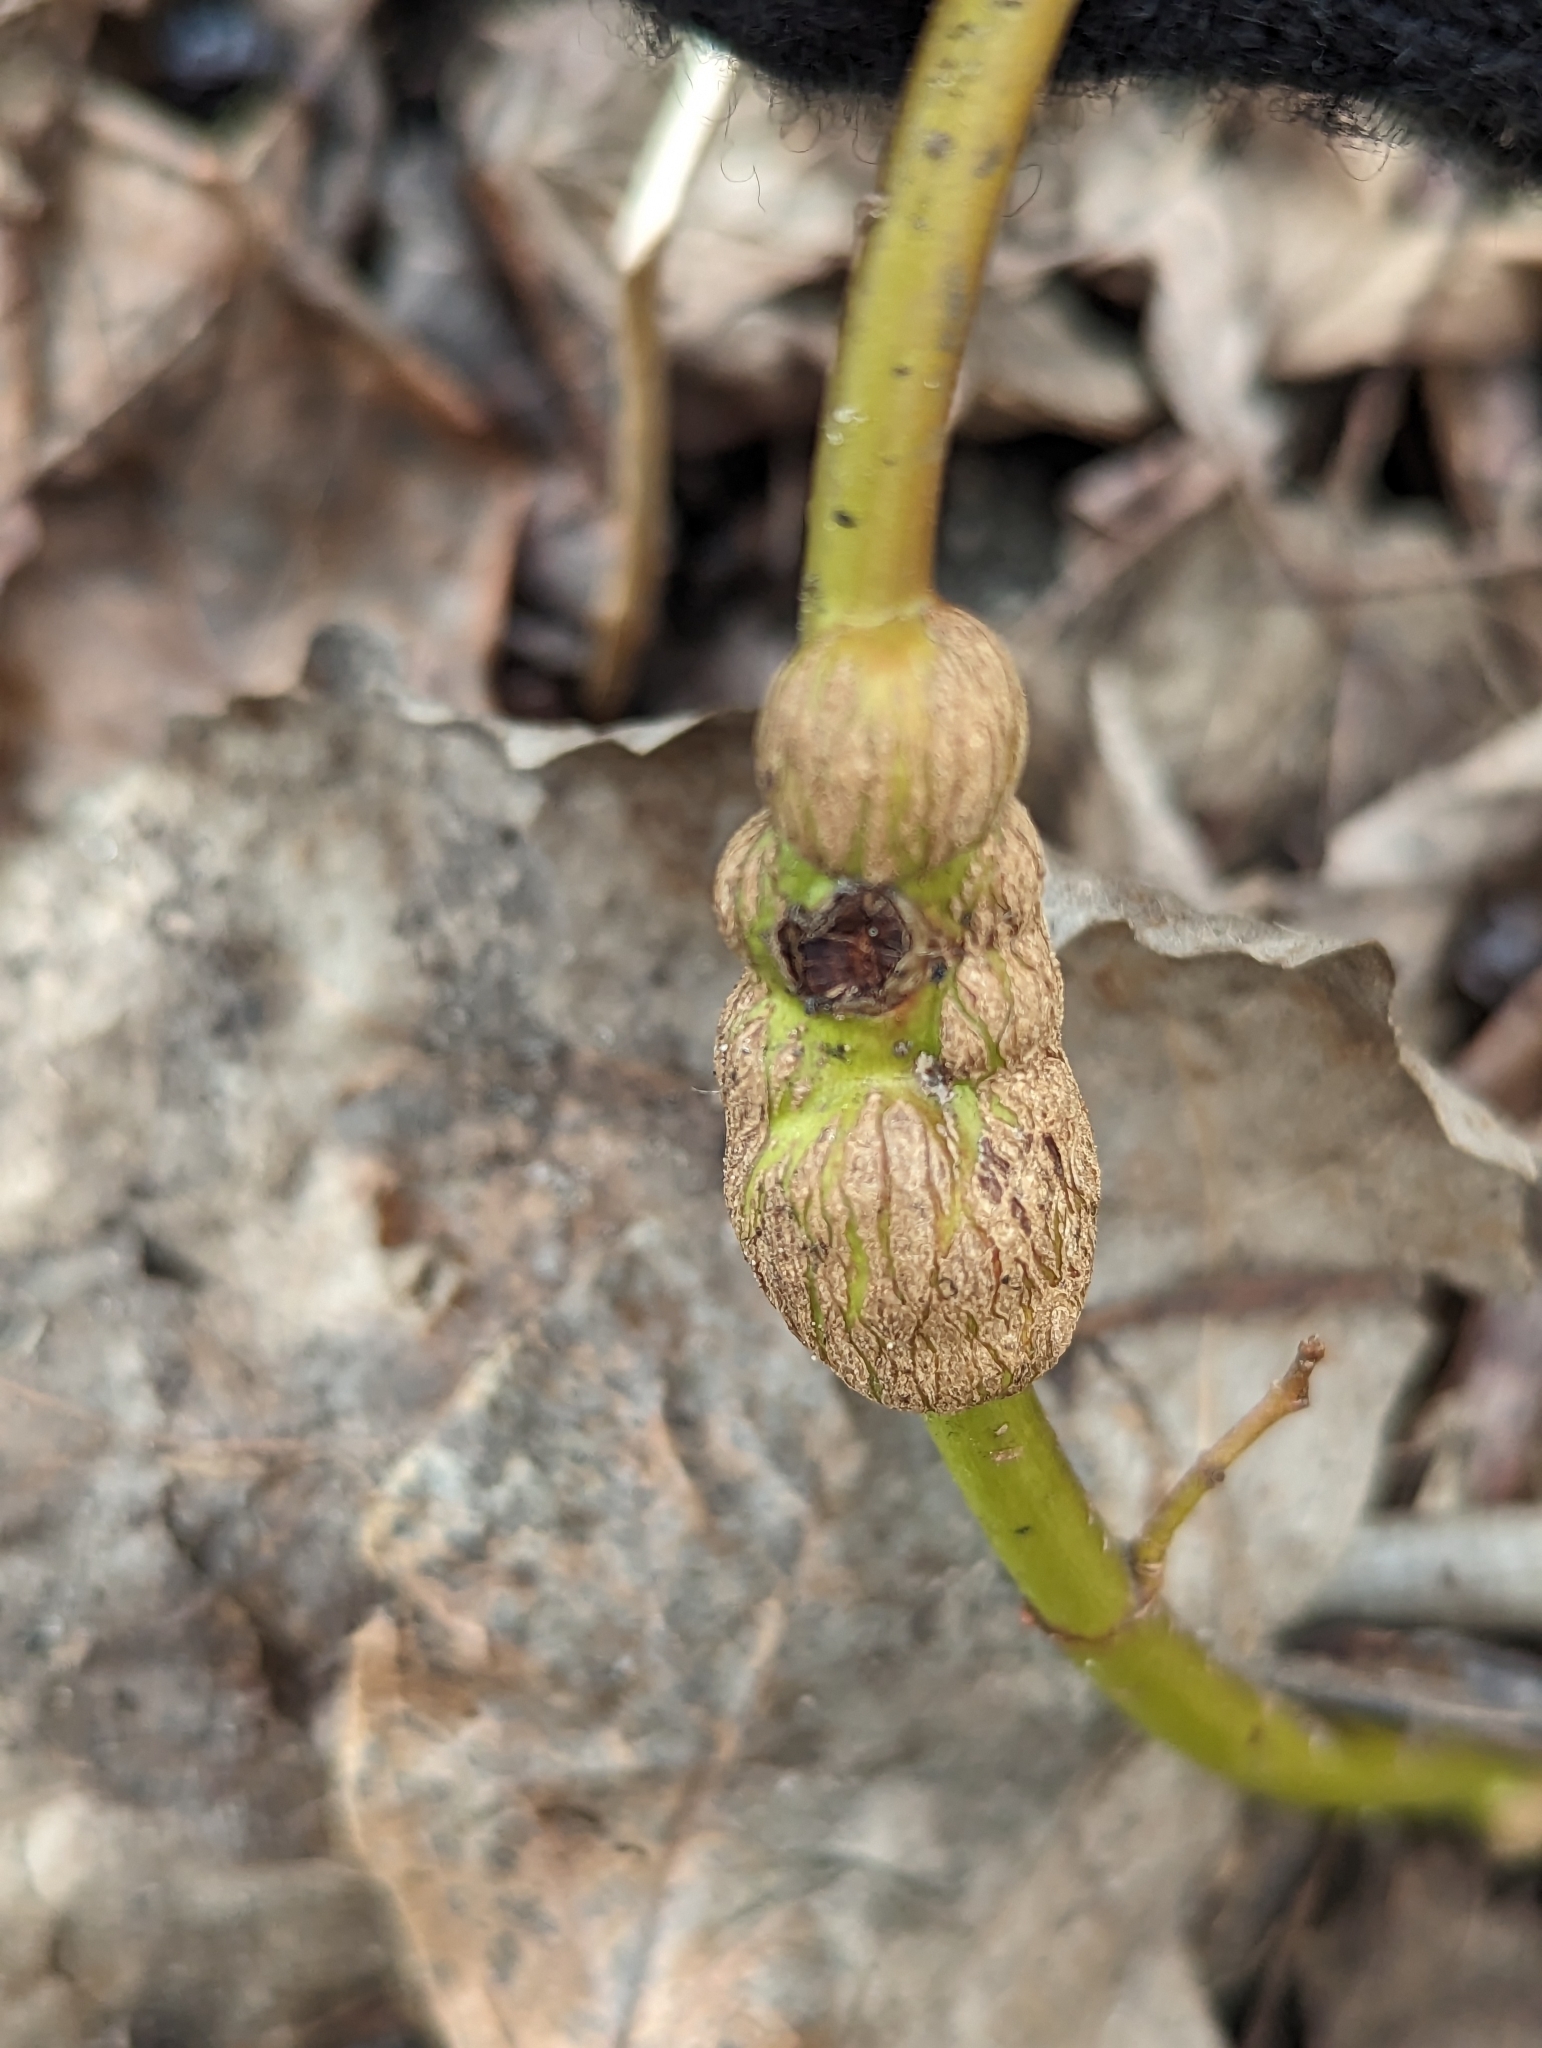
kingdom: Animalia
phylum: Arthropoda
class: Insecta
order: Diptera
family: Cecidomyiidae
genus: Neolasioptera
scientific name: Neolasioptera cornicola
